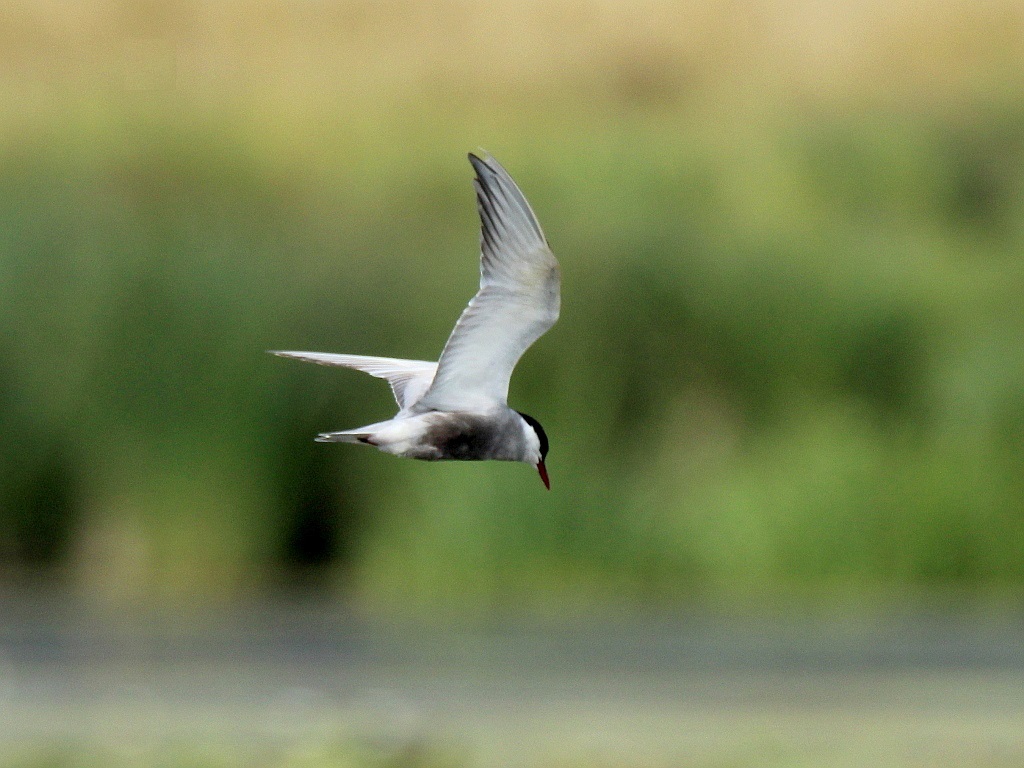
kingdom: Animalia
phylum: Chordata
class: Aves
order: Charadriiformes
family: Laridae
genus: Chlidonias
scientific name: Chlidonias hybrida
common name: Whiskered tern
